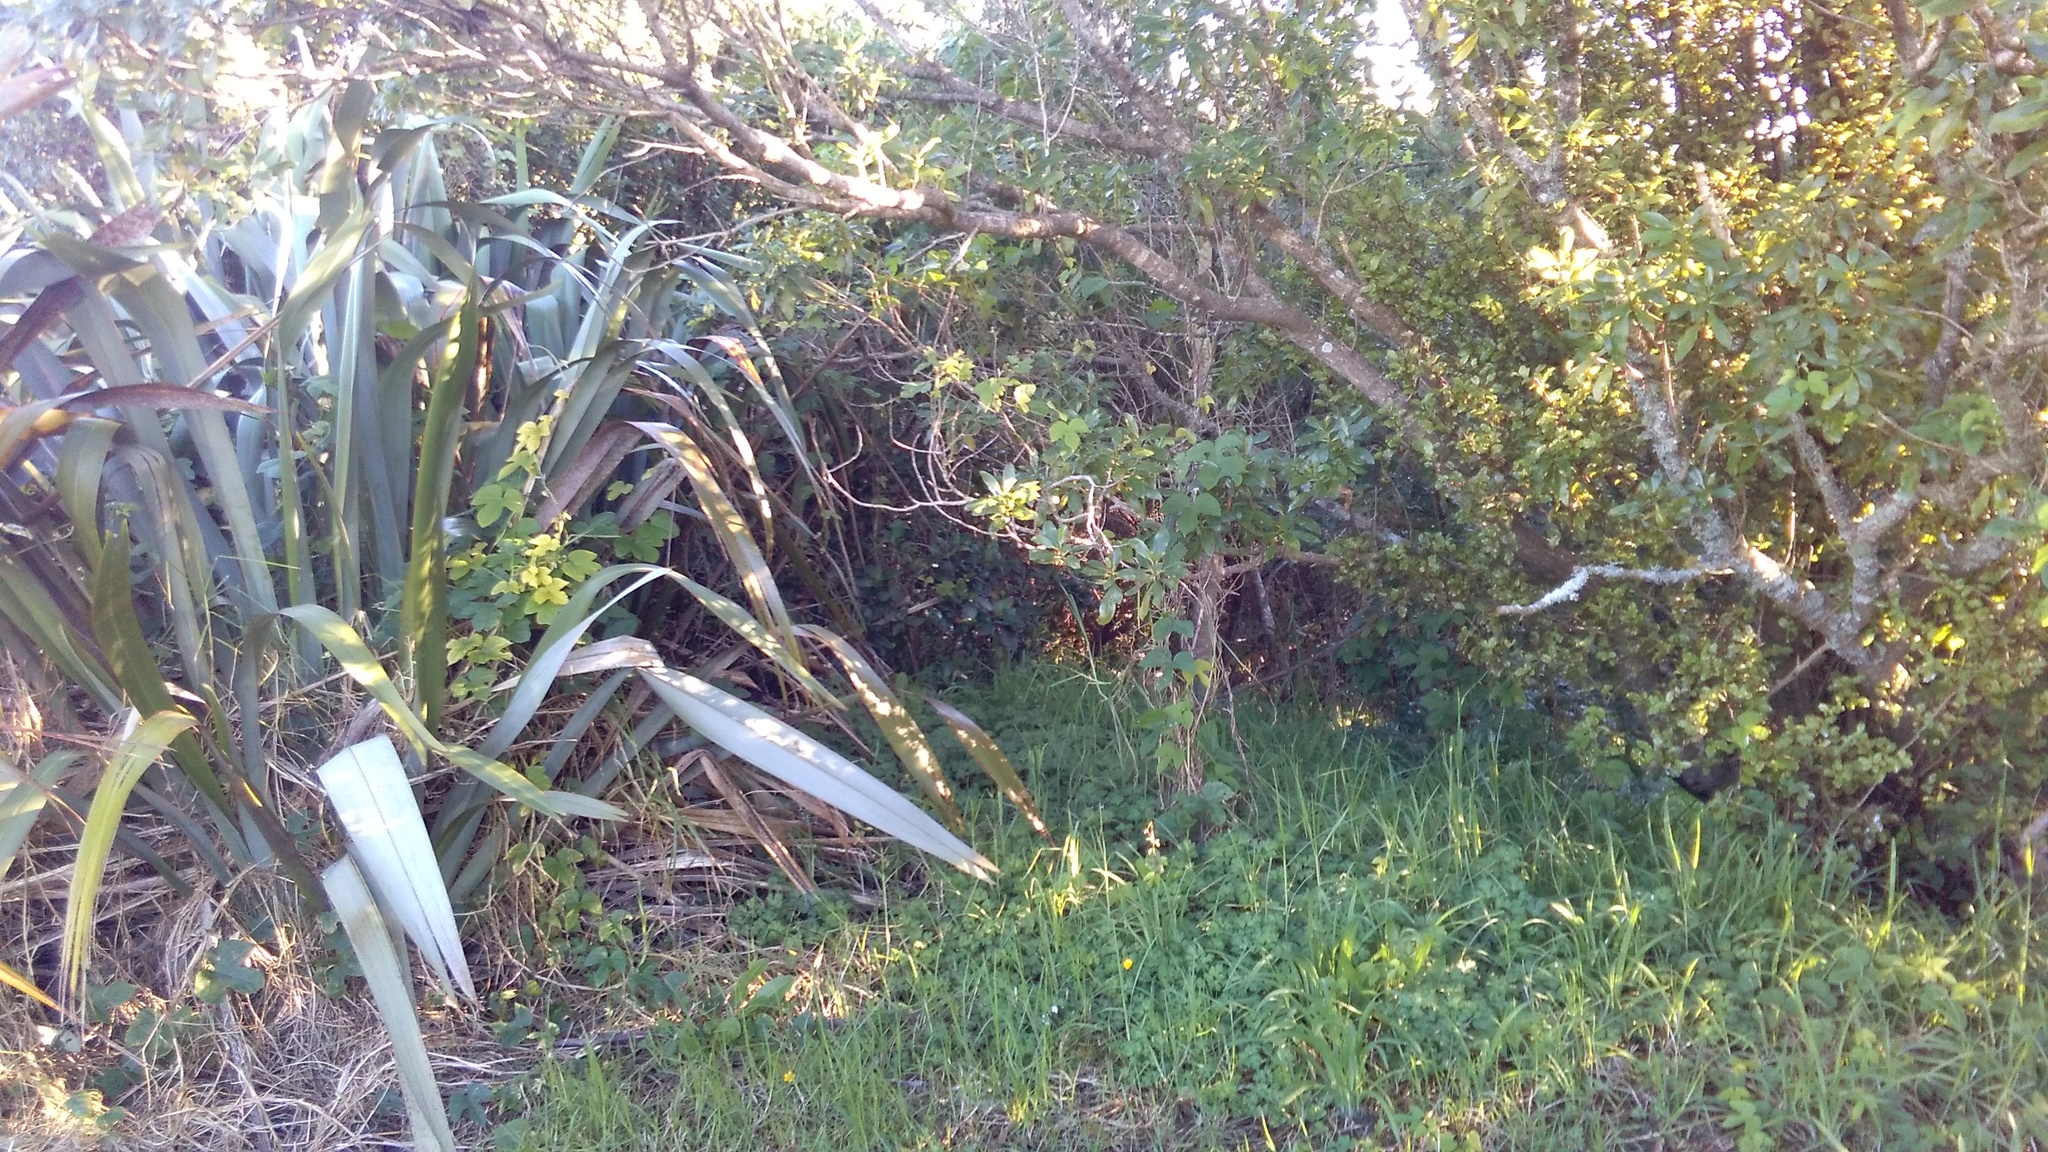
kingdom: Plantae
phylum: Tracheophyta
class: Magnoliopsida
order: Solanales
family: Convolvulaceae
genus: Ipomoea
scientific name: Ipomoea indica
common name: Blue dawnflower
